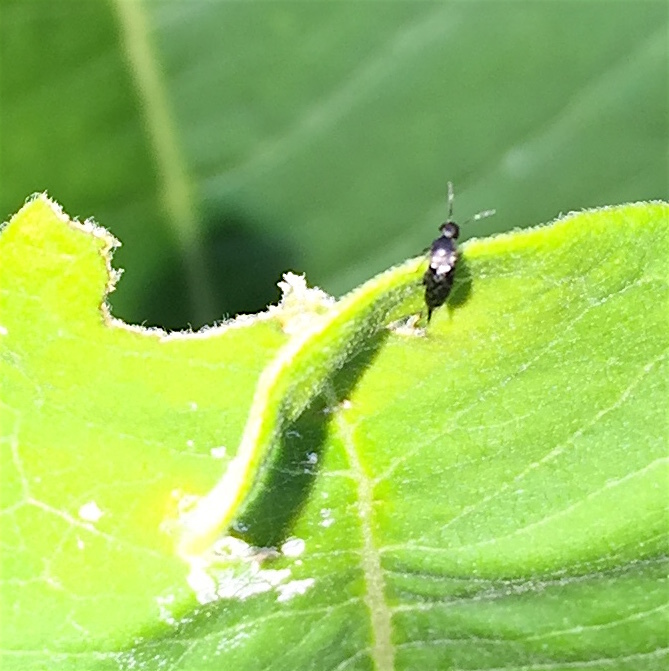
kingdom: Animalia
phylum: Arthropoda
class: Insecta
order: Coleoptera
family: Mordellidae
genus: Mordellina
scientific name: Mordellina pustulata
